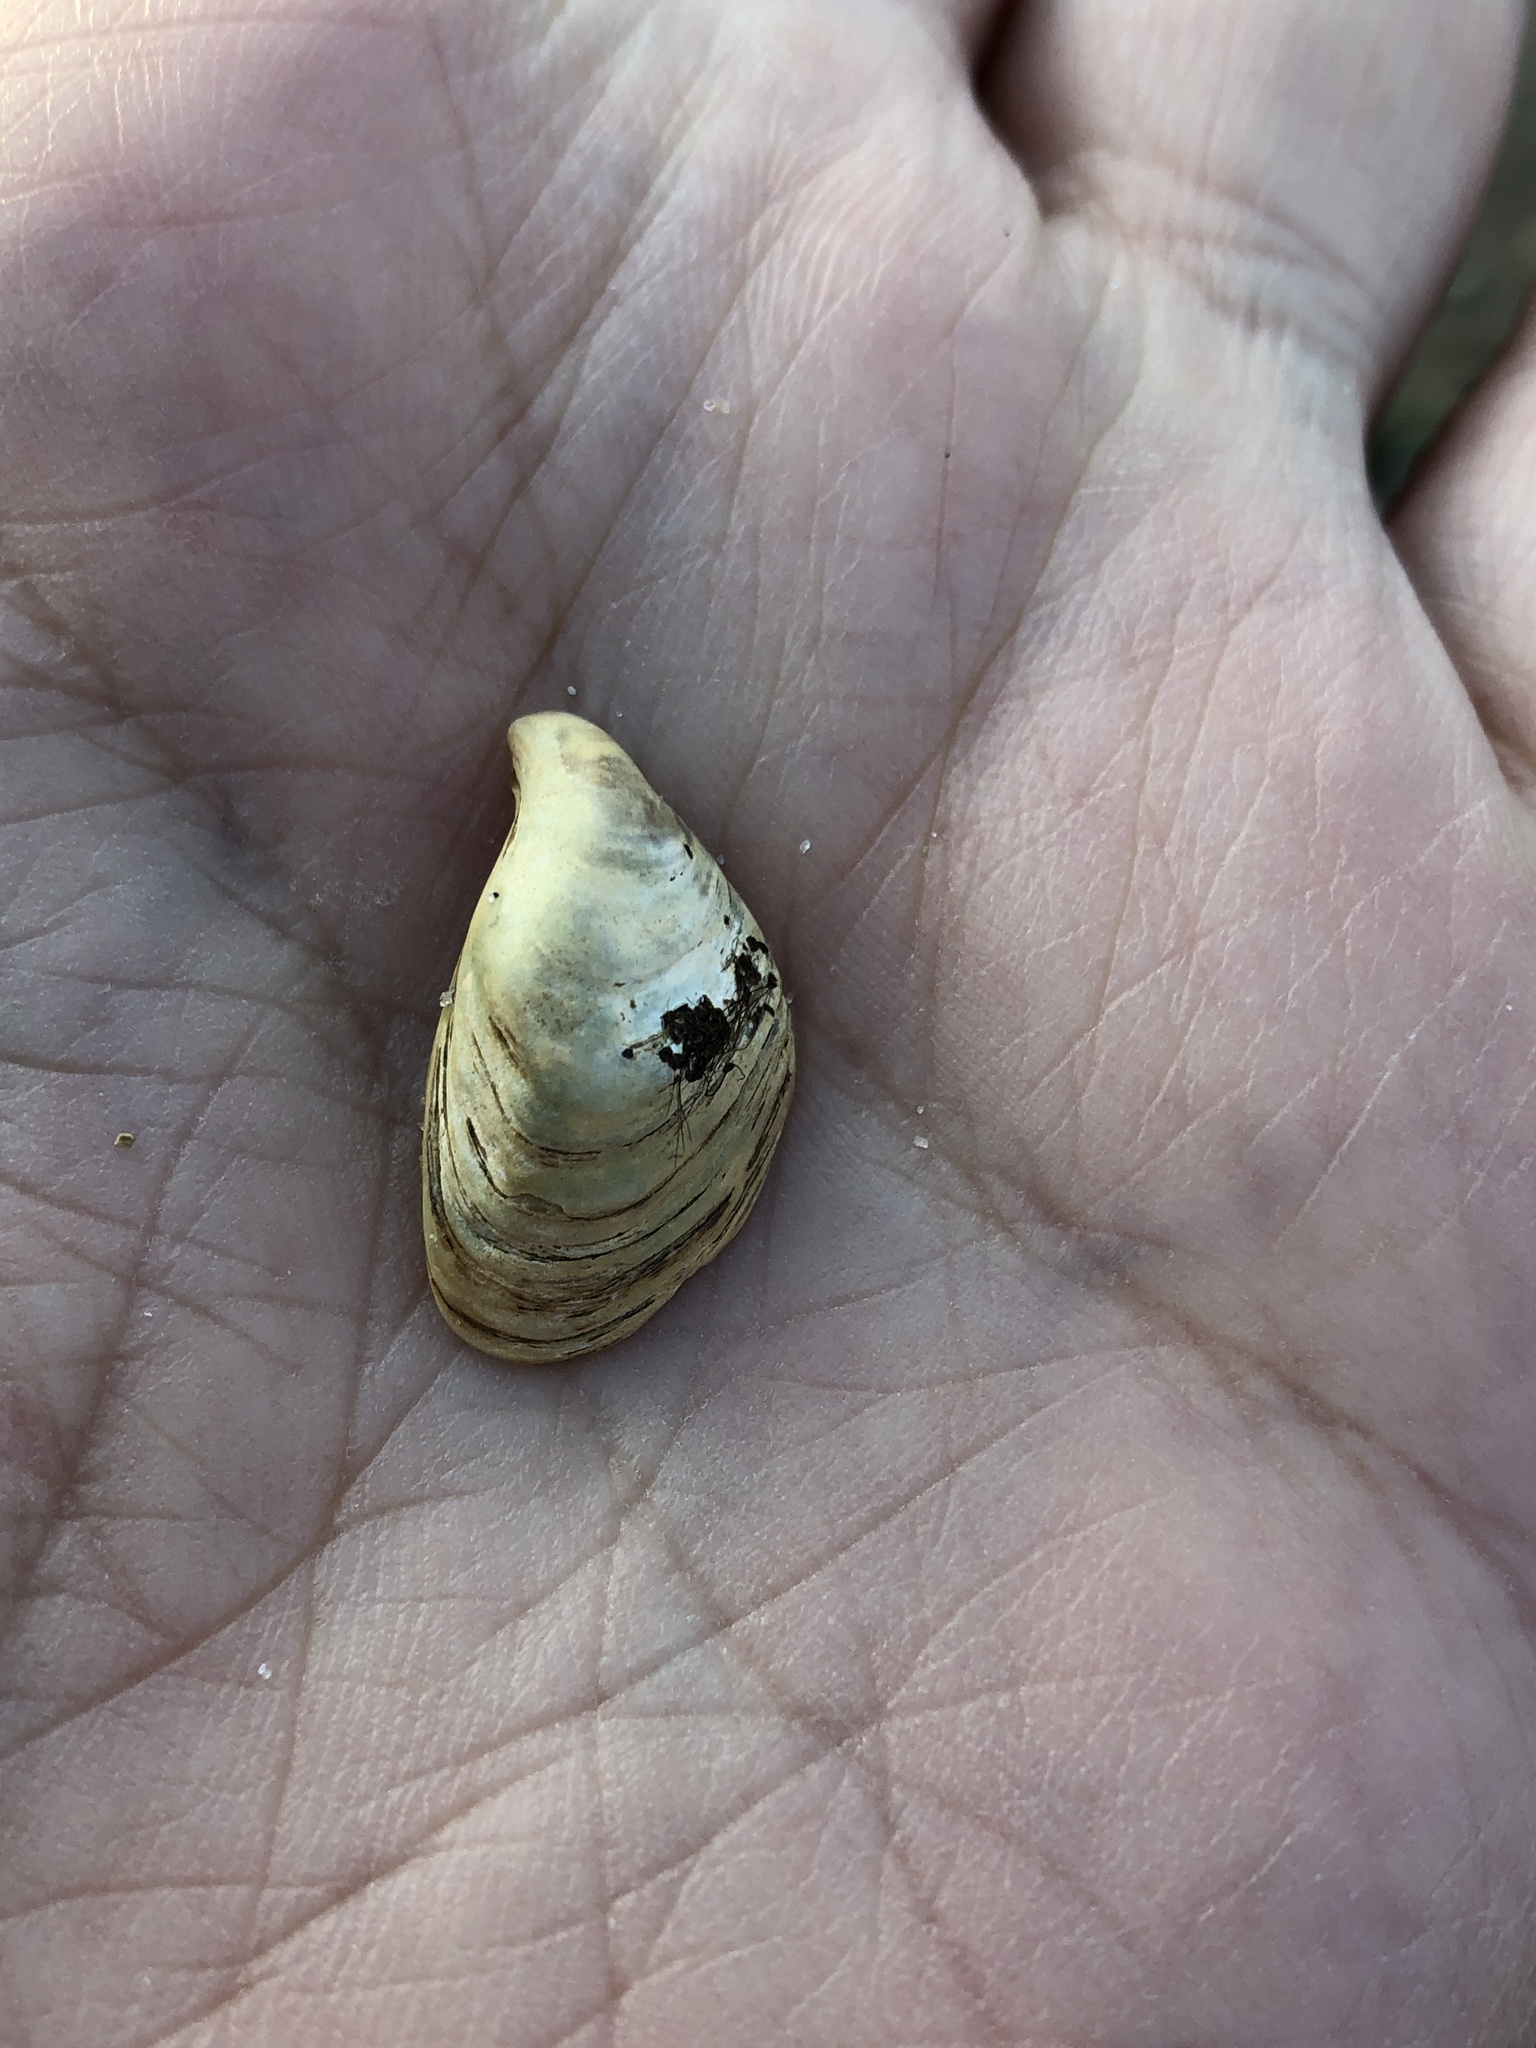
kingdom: Animalia
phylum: Mollusca
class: Bivalvia
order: Myida
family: Dreissenidae
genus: Dreissena
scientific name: Dreissena bugensis
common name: Quagga mussel
